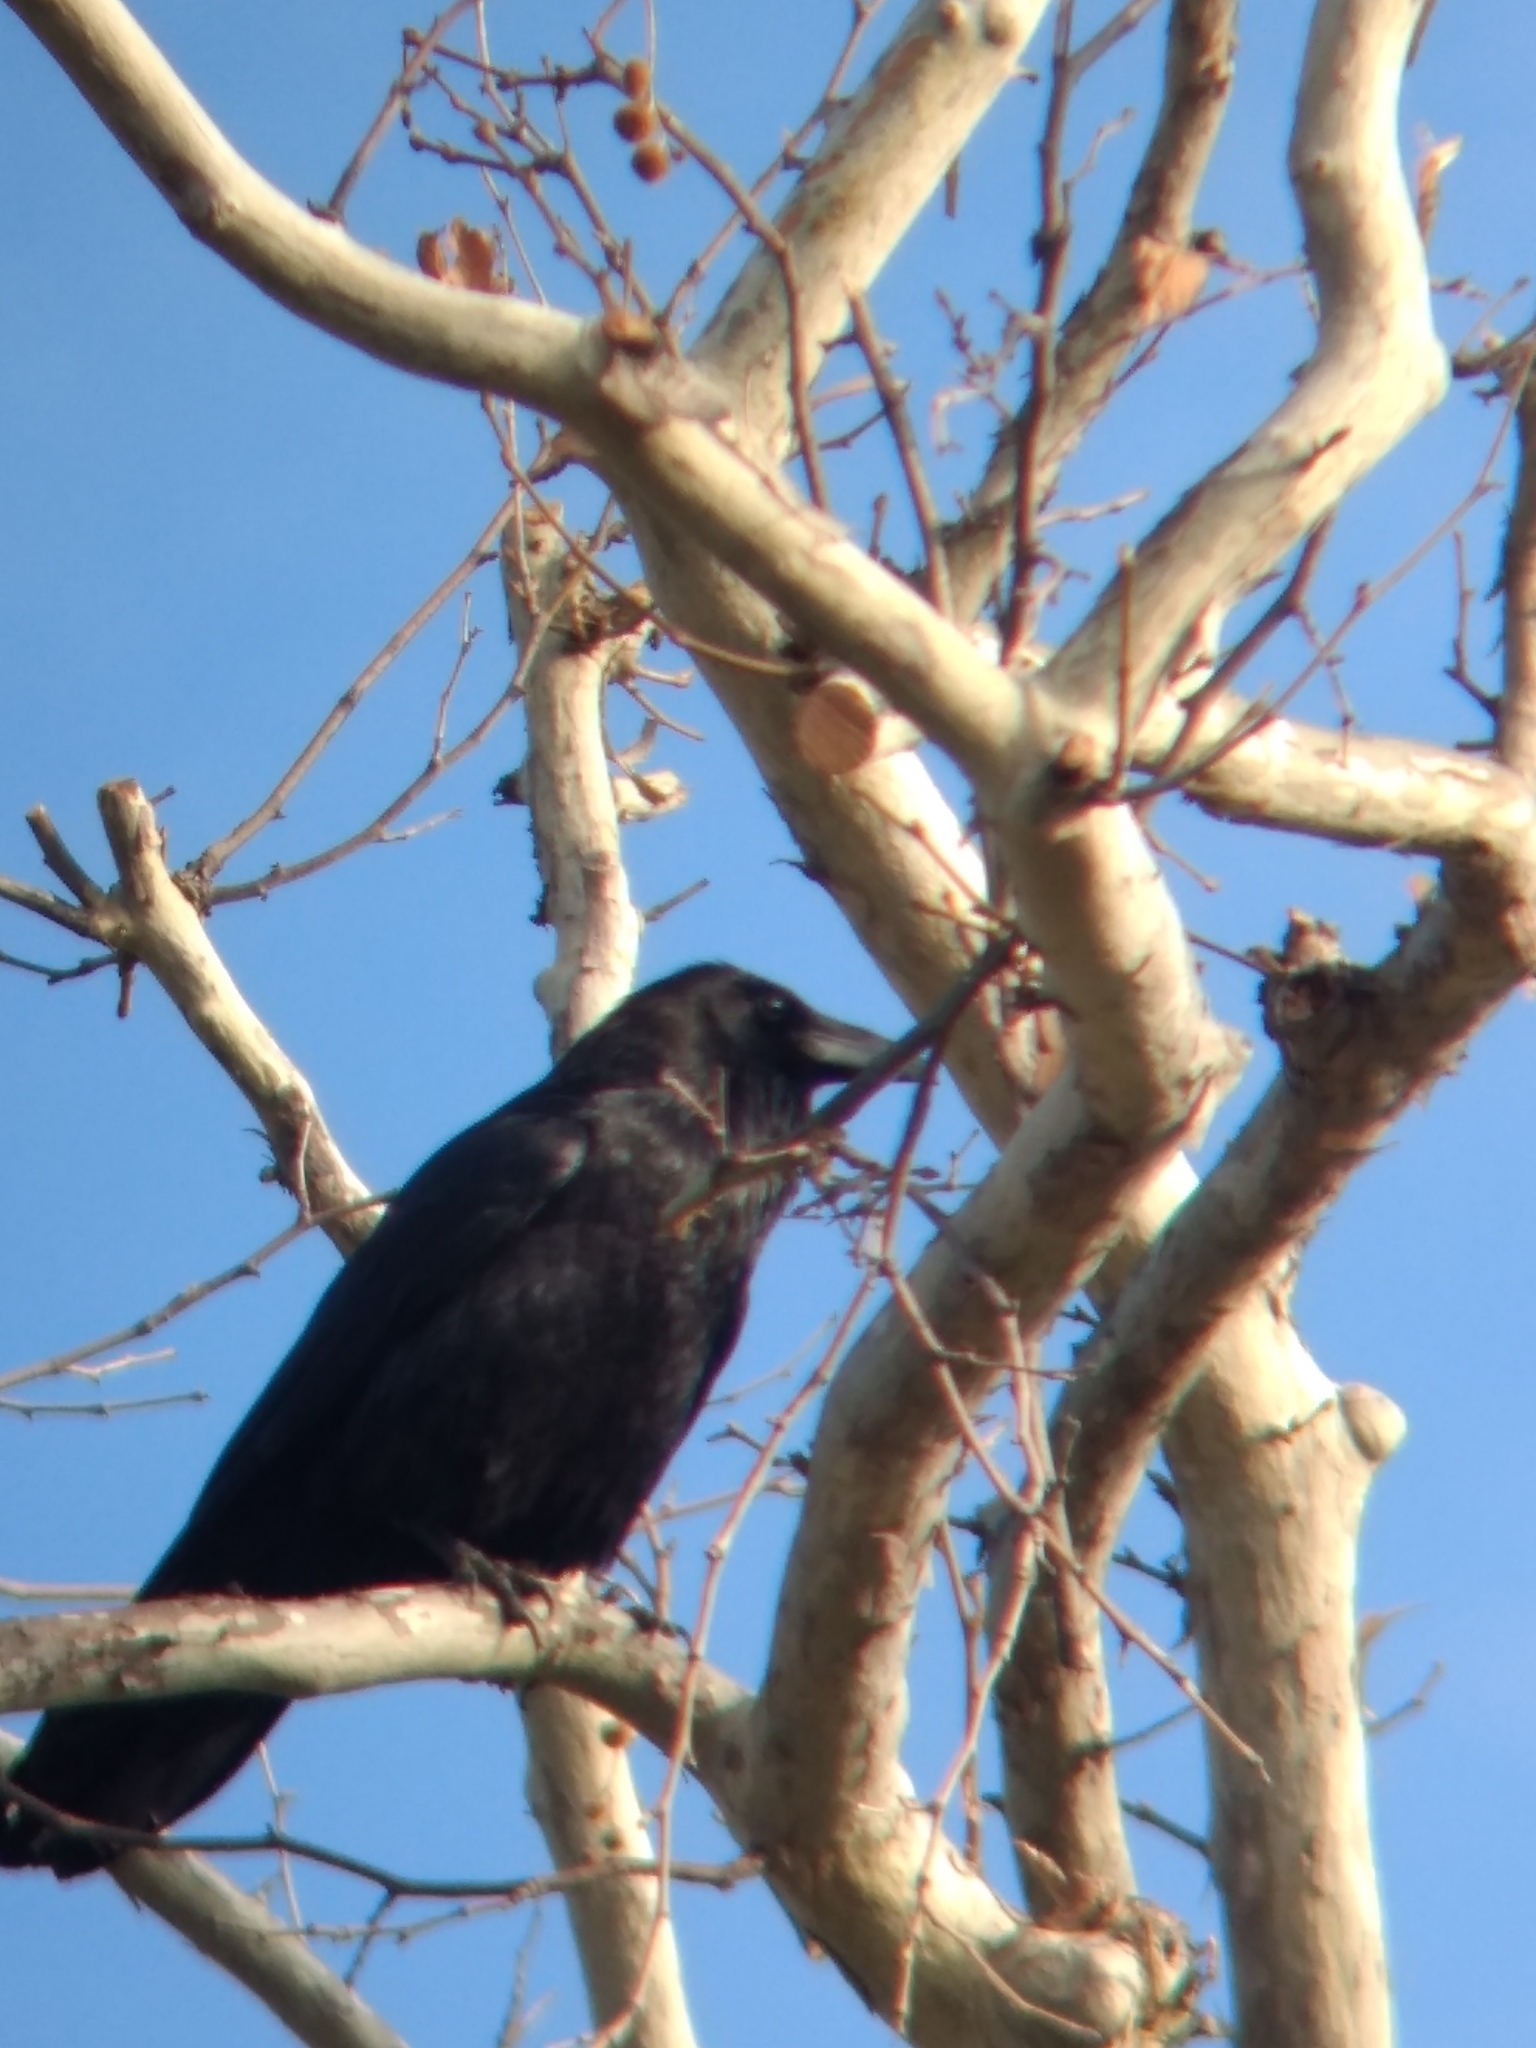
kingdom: Animalia
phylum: Chordata
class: Aves
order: Passeriformes
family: Corvidae
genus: Corvus
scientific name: Corvus corax
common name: Common raven
